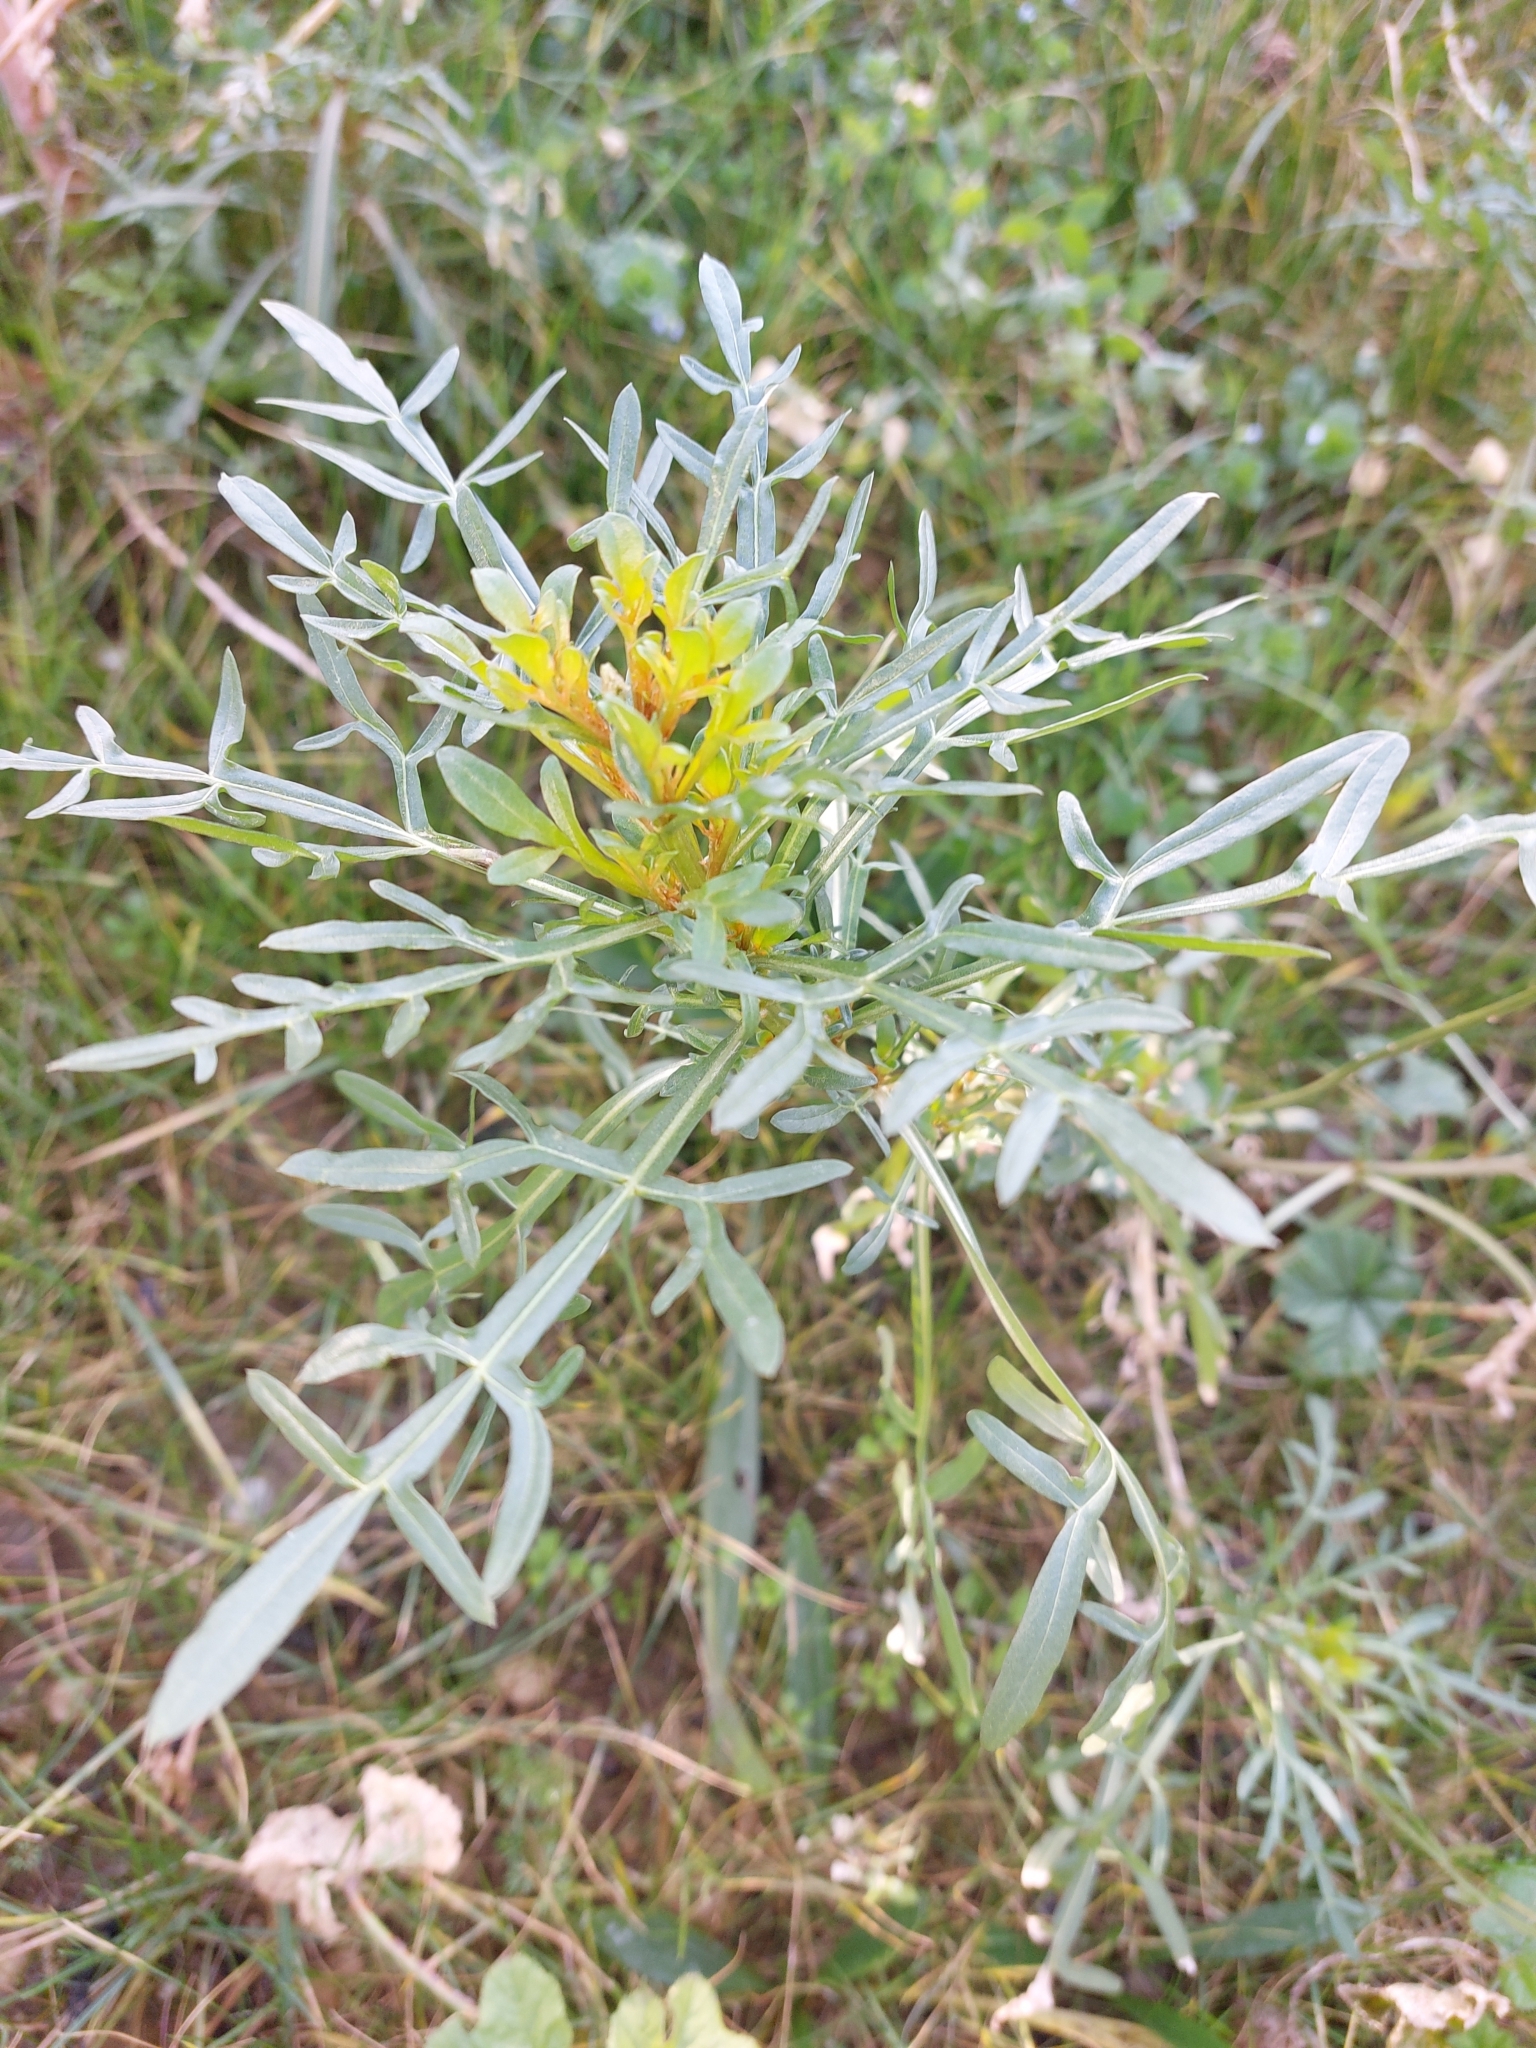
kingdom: Plantae
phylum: Tracheophyta
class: Magnoliopsida
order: Brassicales
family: Resedaceae
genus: Reseda
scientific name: Reseda lutea
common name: Wild mignonette
